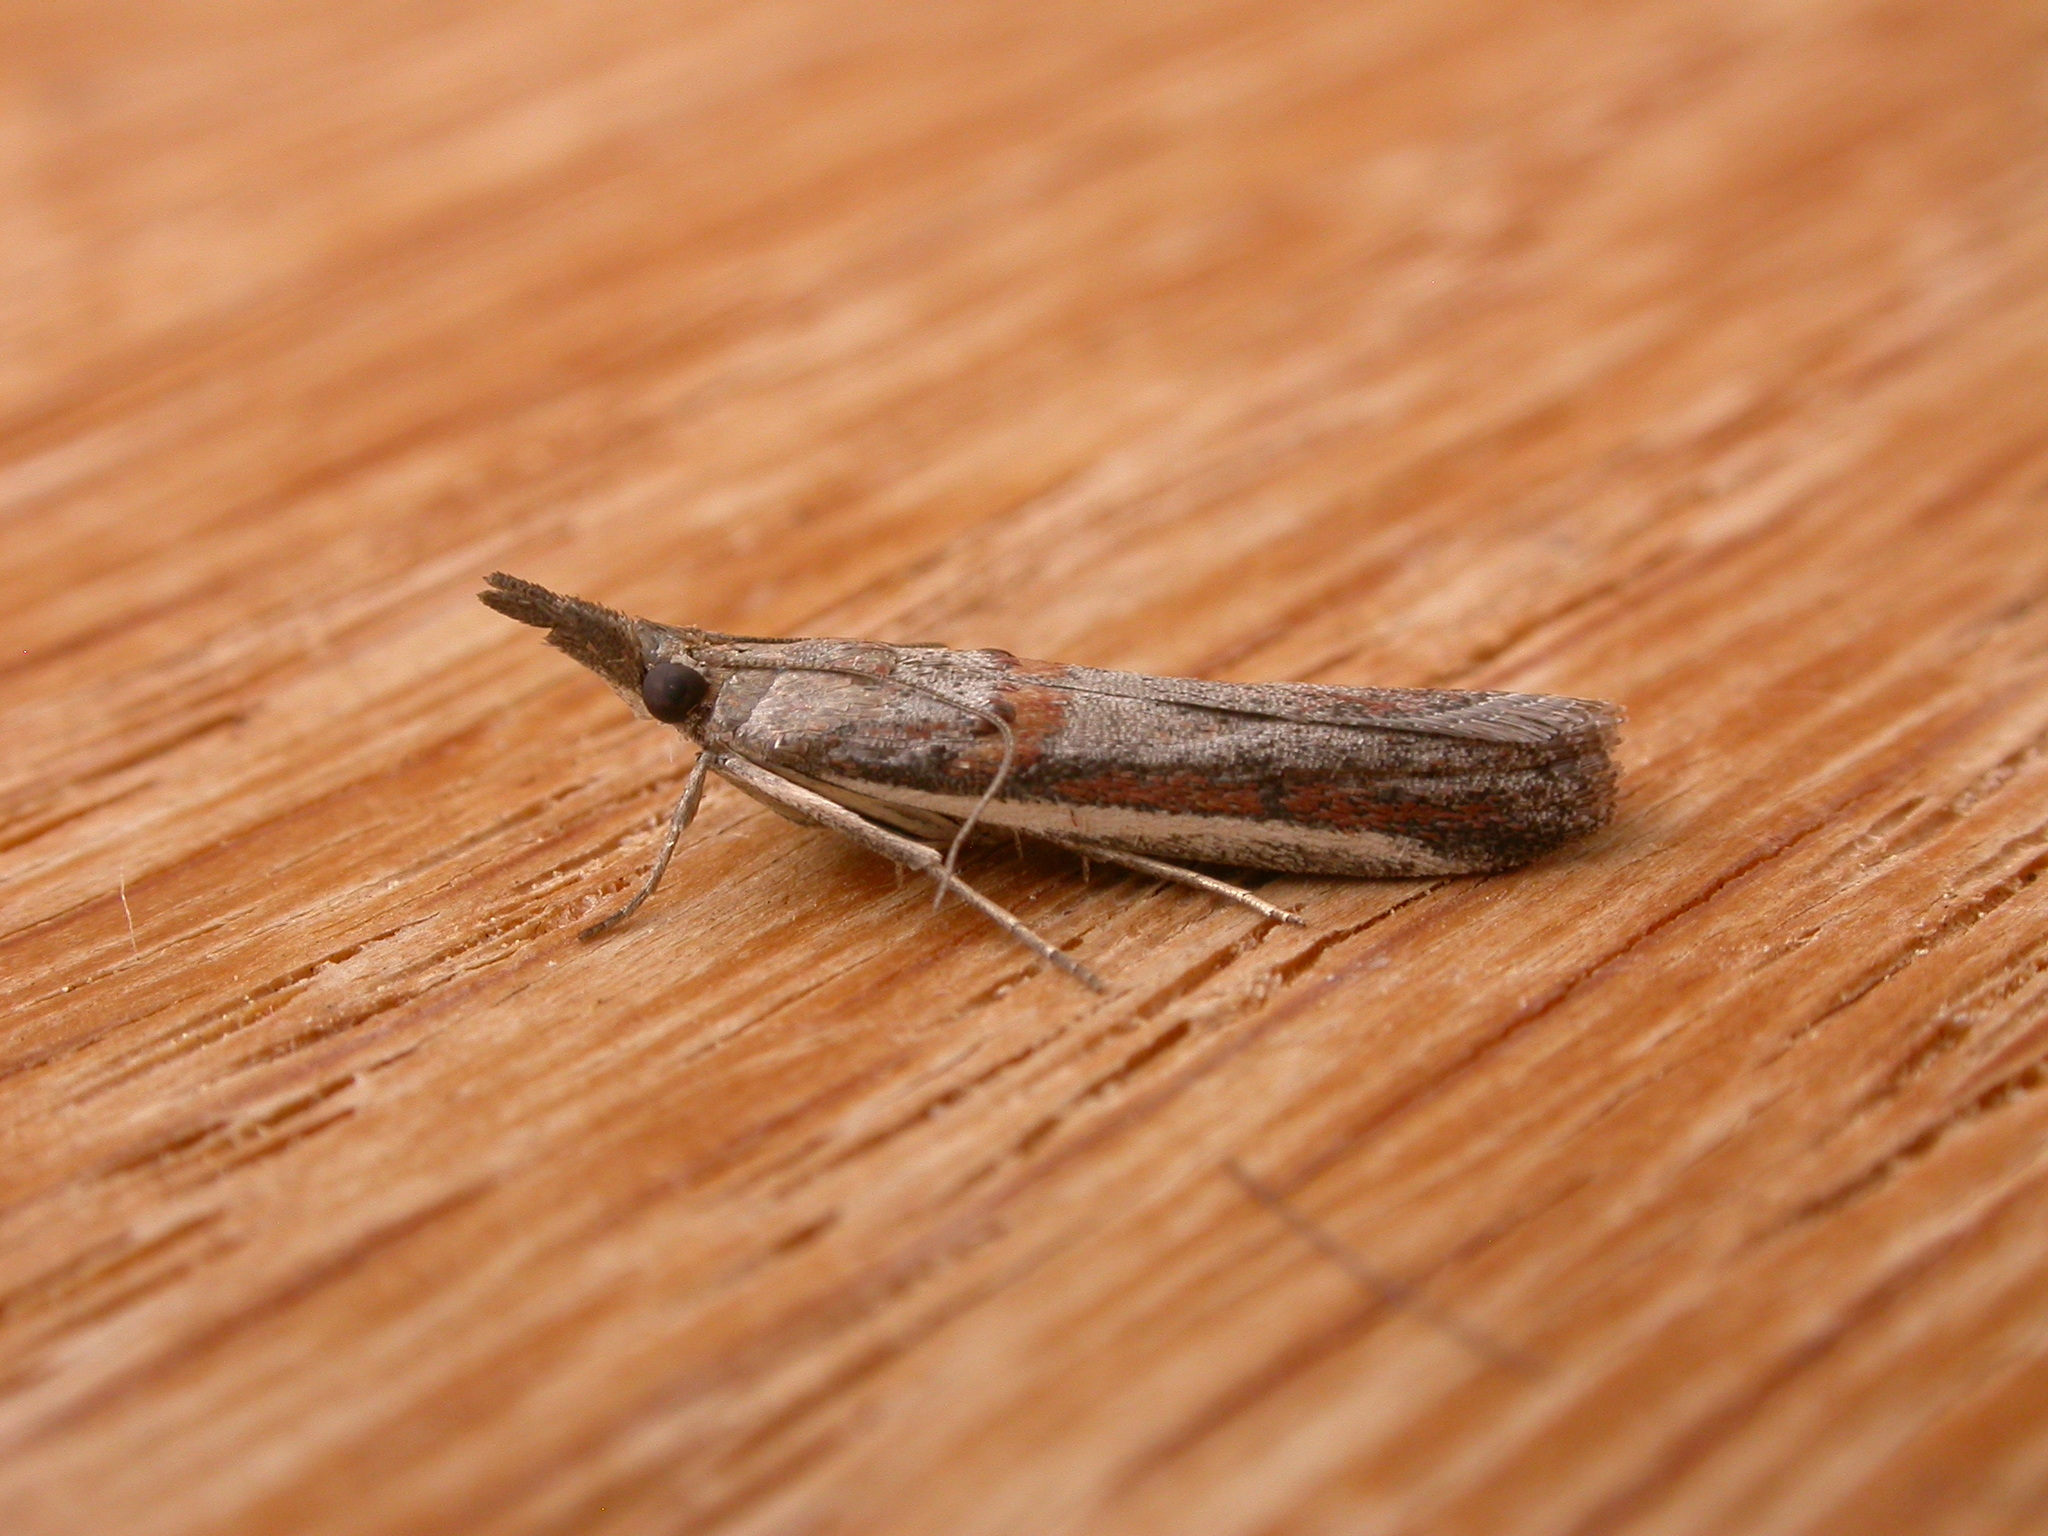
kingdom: Animalia
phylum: Arthropoda
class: Insecta
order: Lepidoptera
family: Pyralidae
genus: Etiella
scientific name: Etiella behrii
